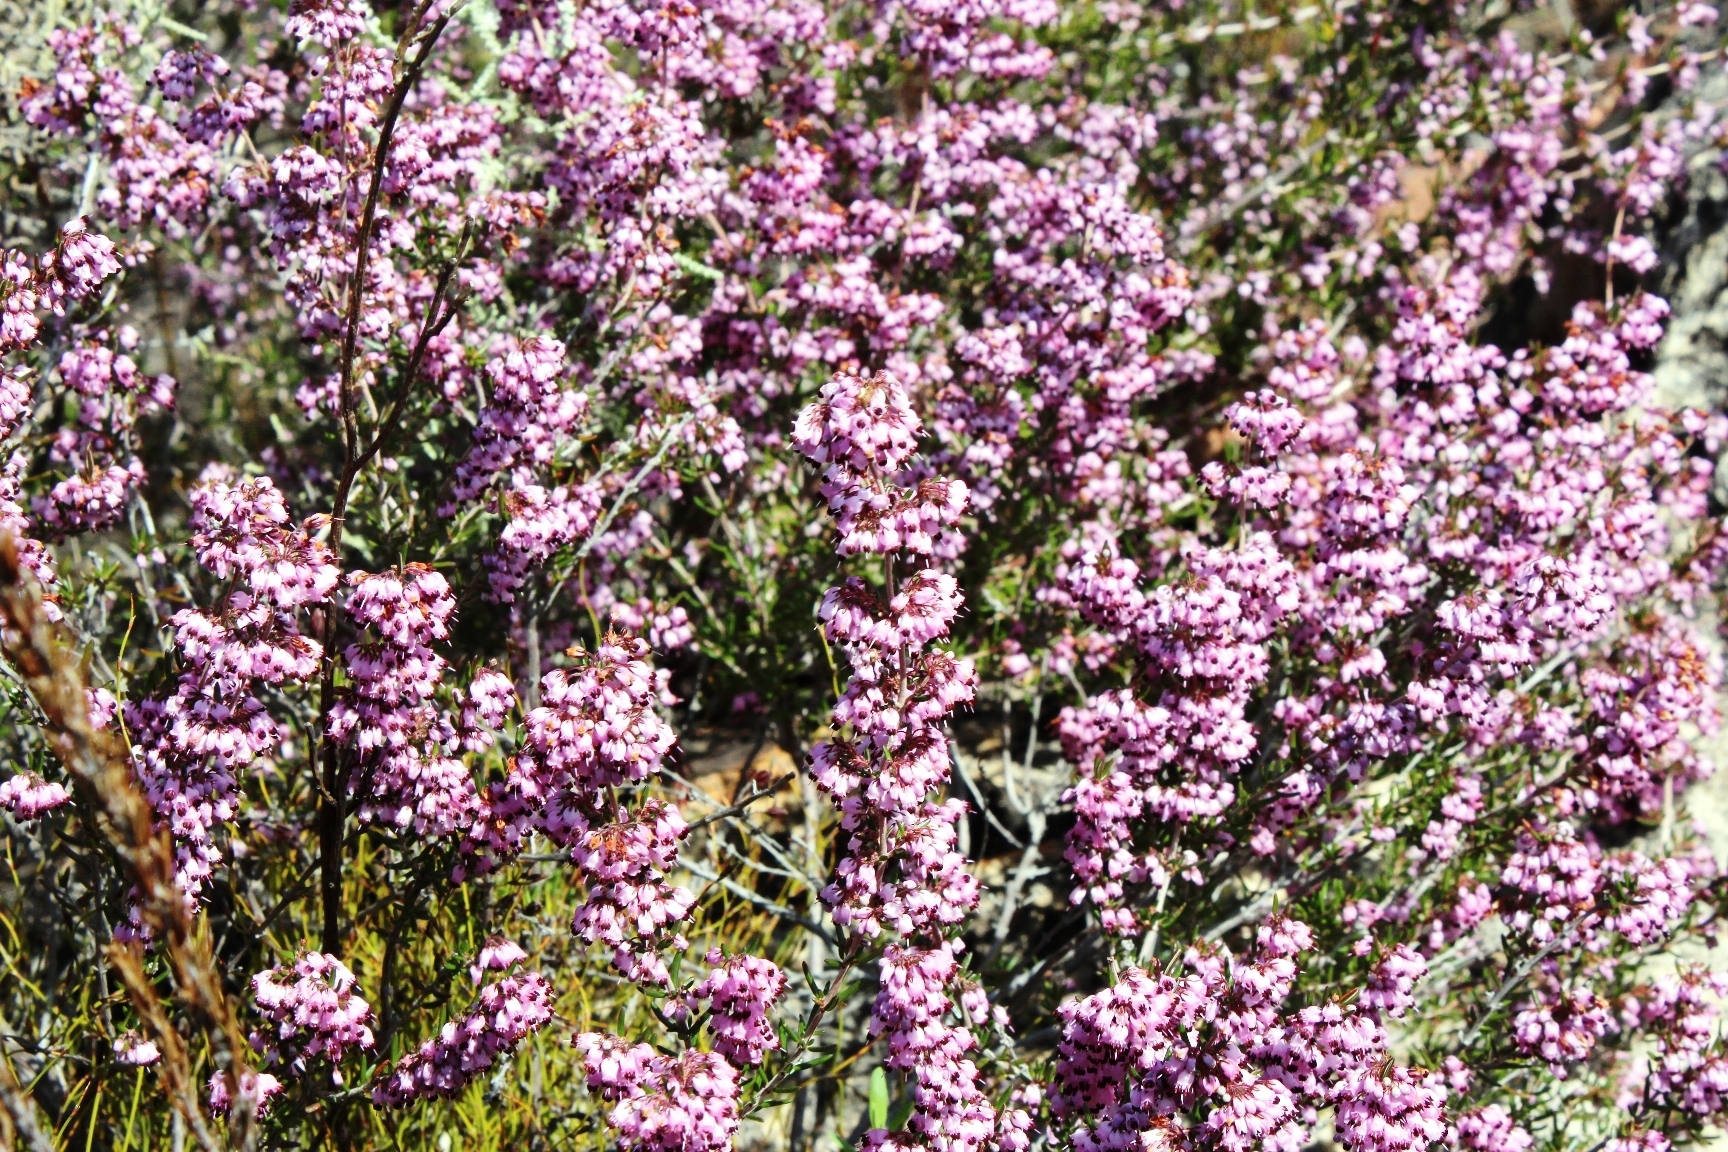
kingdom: Plantae
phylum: Tracheophyta
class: Magnoliopsida
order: Ericales
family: Ericaceae
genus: Erica
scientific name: Erica nudiflora
